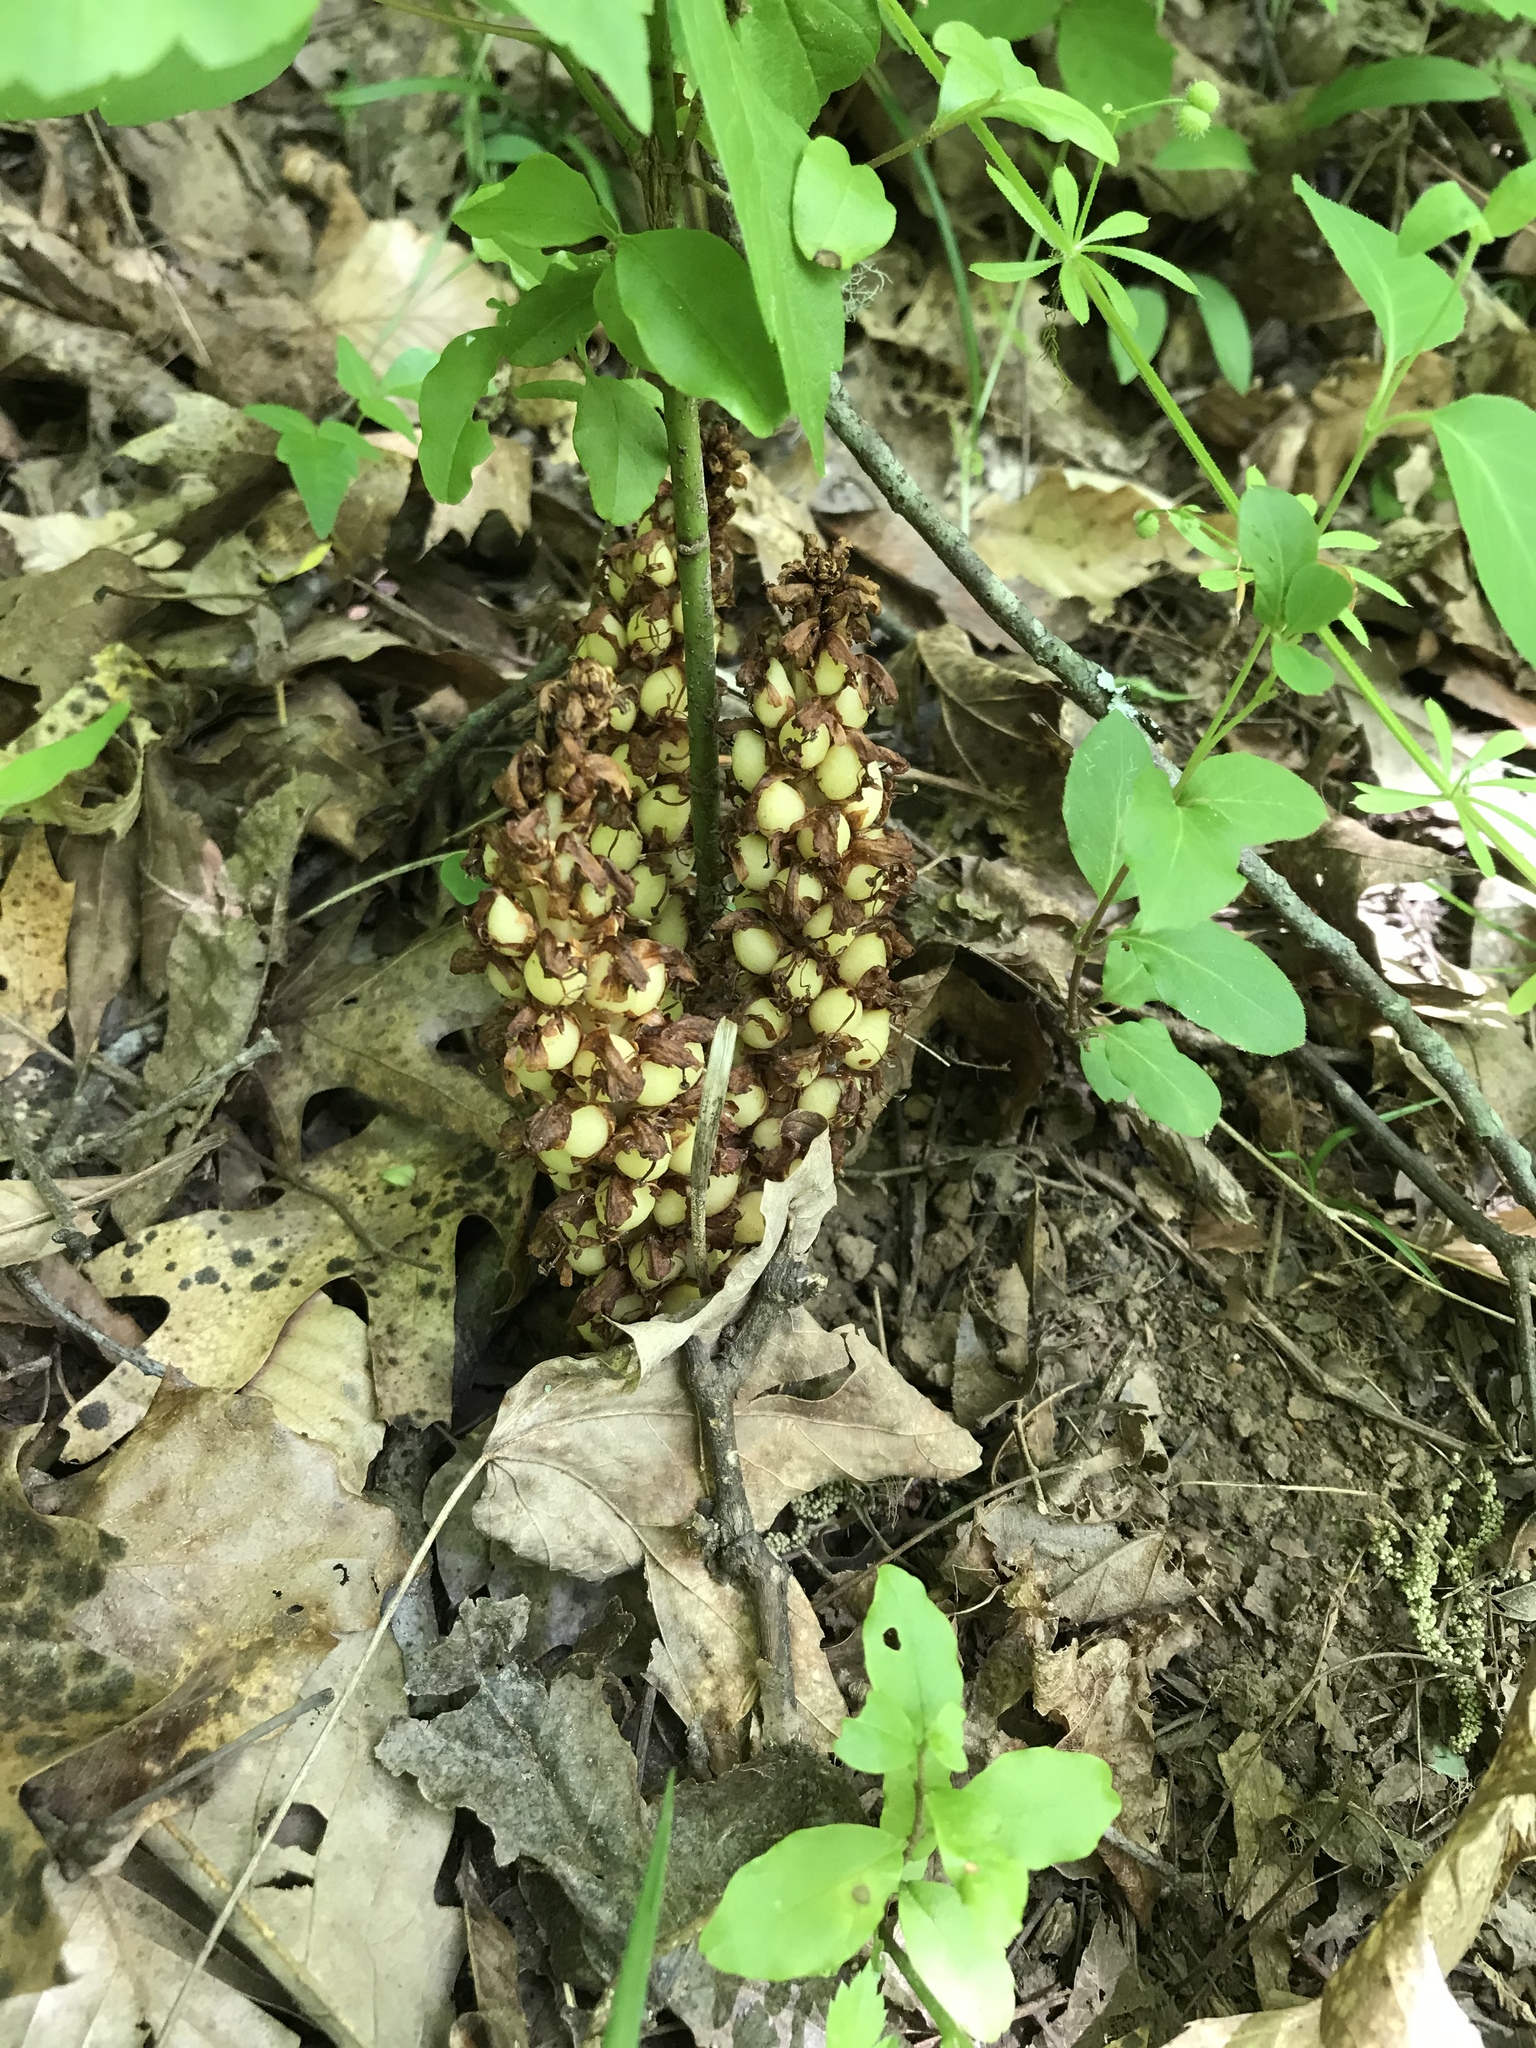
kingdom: Plantae
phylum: Tracheophyta
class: Magnoliopsida
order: Lamiales
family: Orobanchaceae
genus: Conopholis
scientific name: Conopholis americana
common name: American cancer-root
